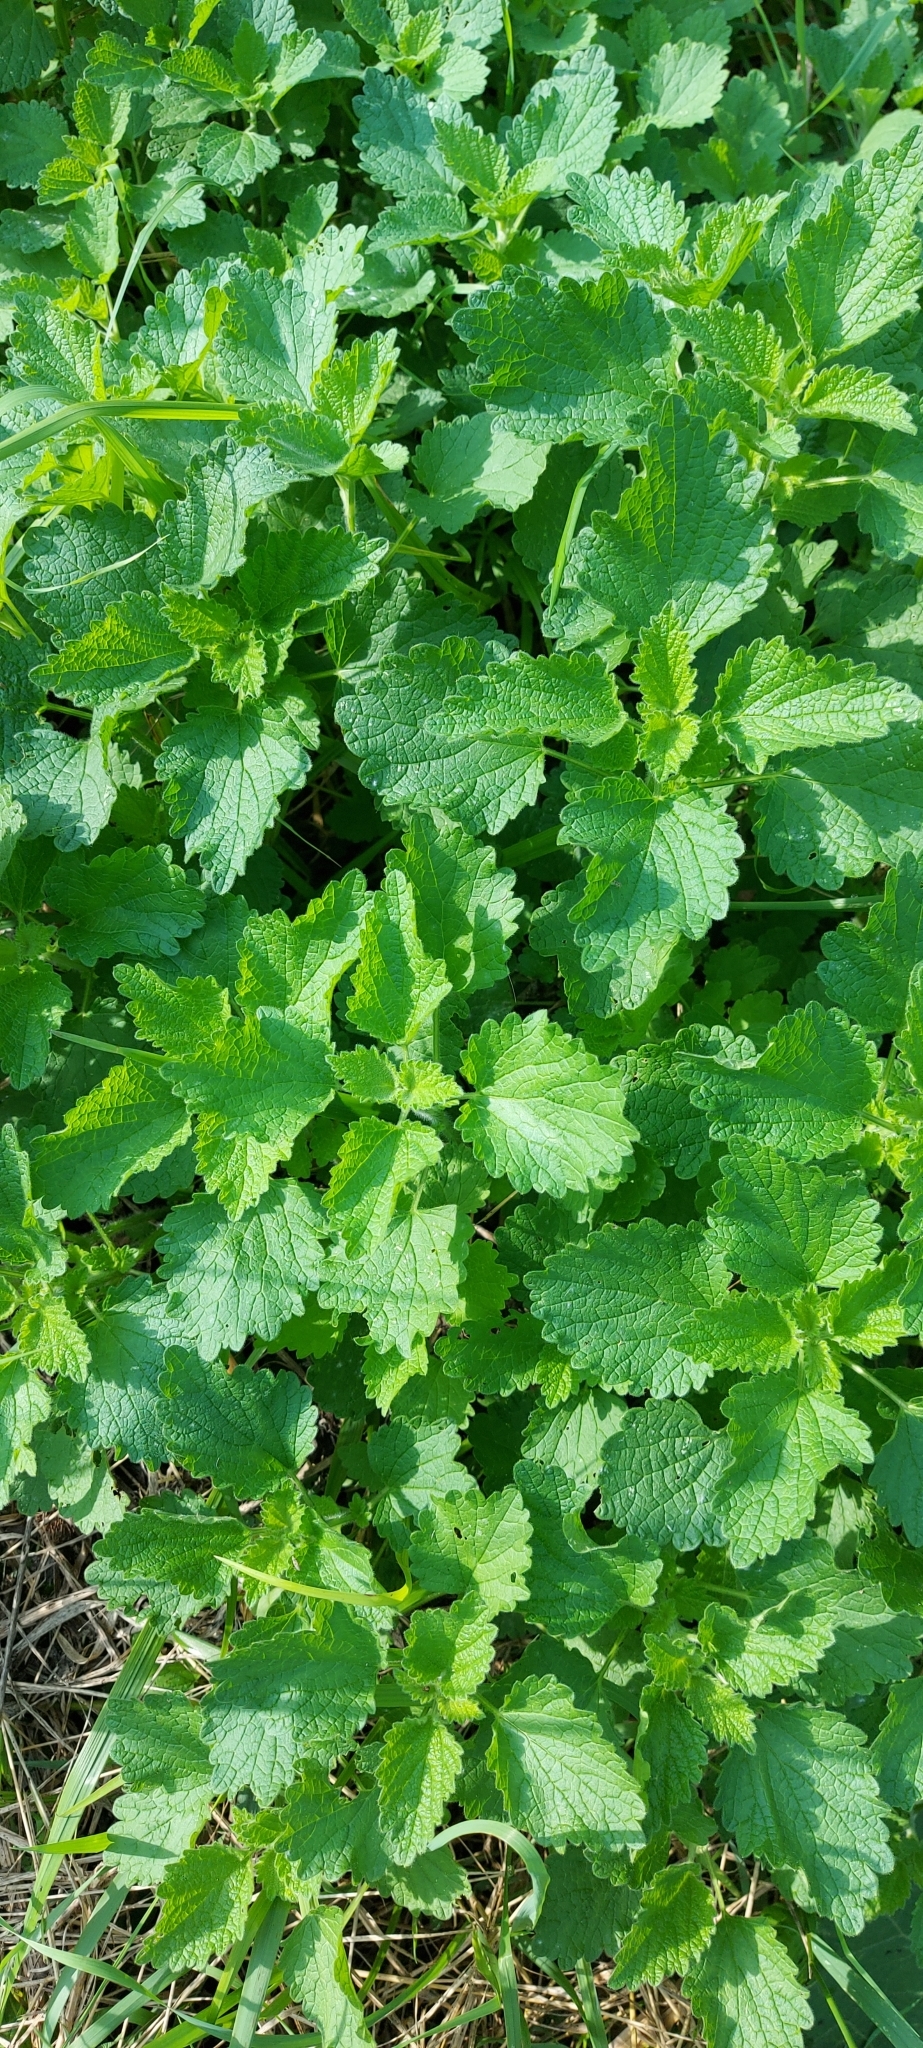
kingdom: Plantae
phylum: Tracheophyta
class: Magnoliopsida
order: Lamiales
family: Lamiaceae
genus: Ballota
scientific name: Ballota nigra
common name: Black horehound
